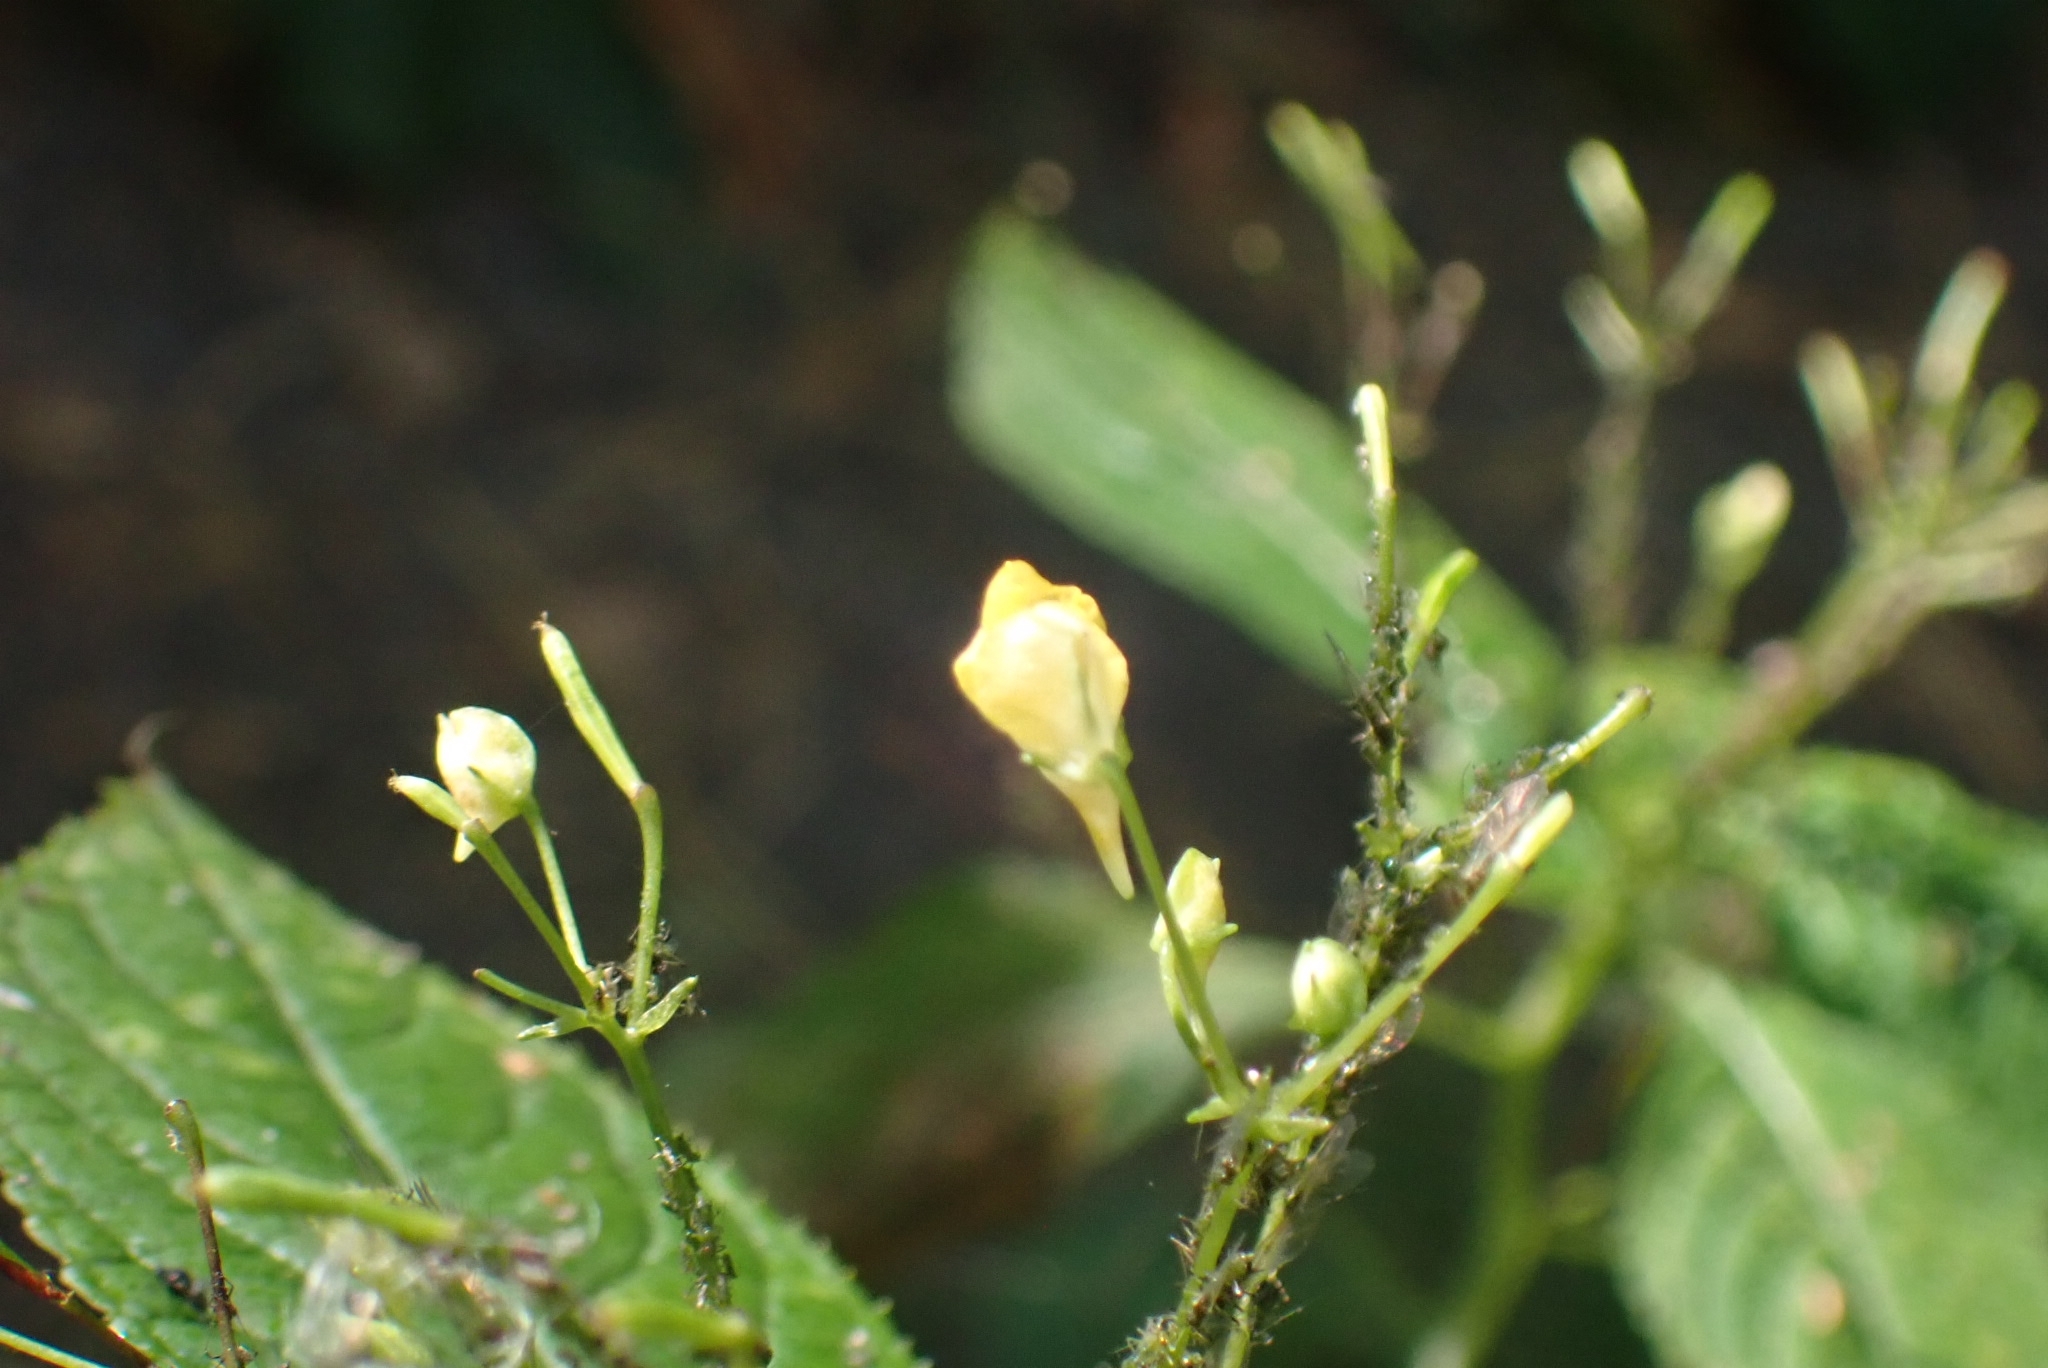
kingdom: Plantae
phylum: Tracheophyta
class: Magnoliopsida
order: Ericales
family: Balsaminaceae
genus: Impatiens
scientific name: Impatiens parviflora
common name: Small balsam
